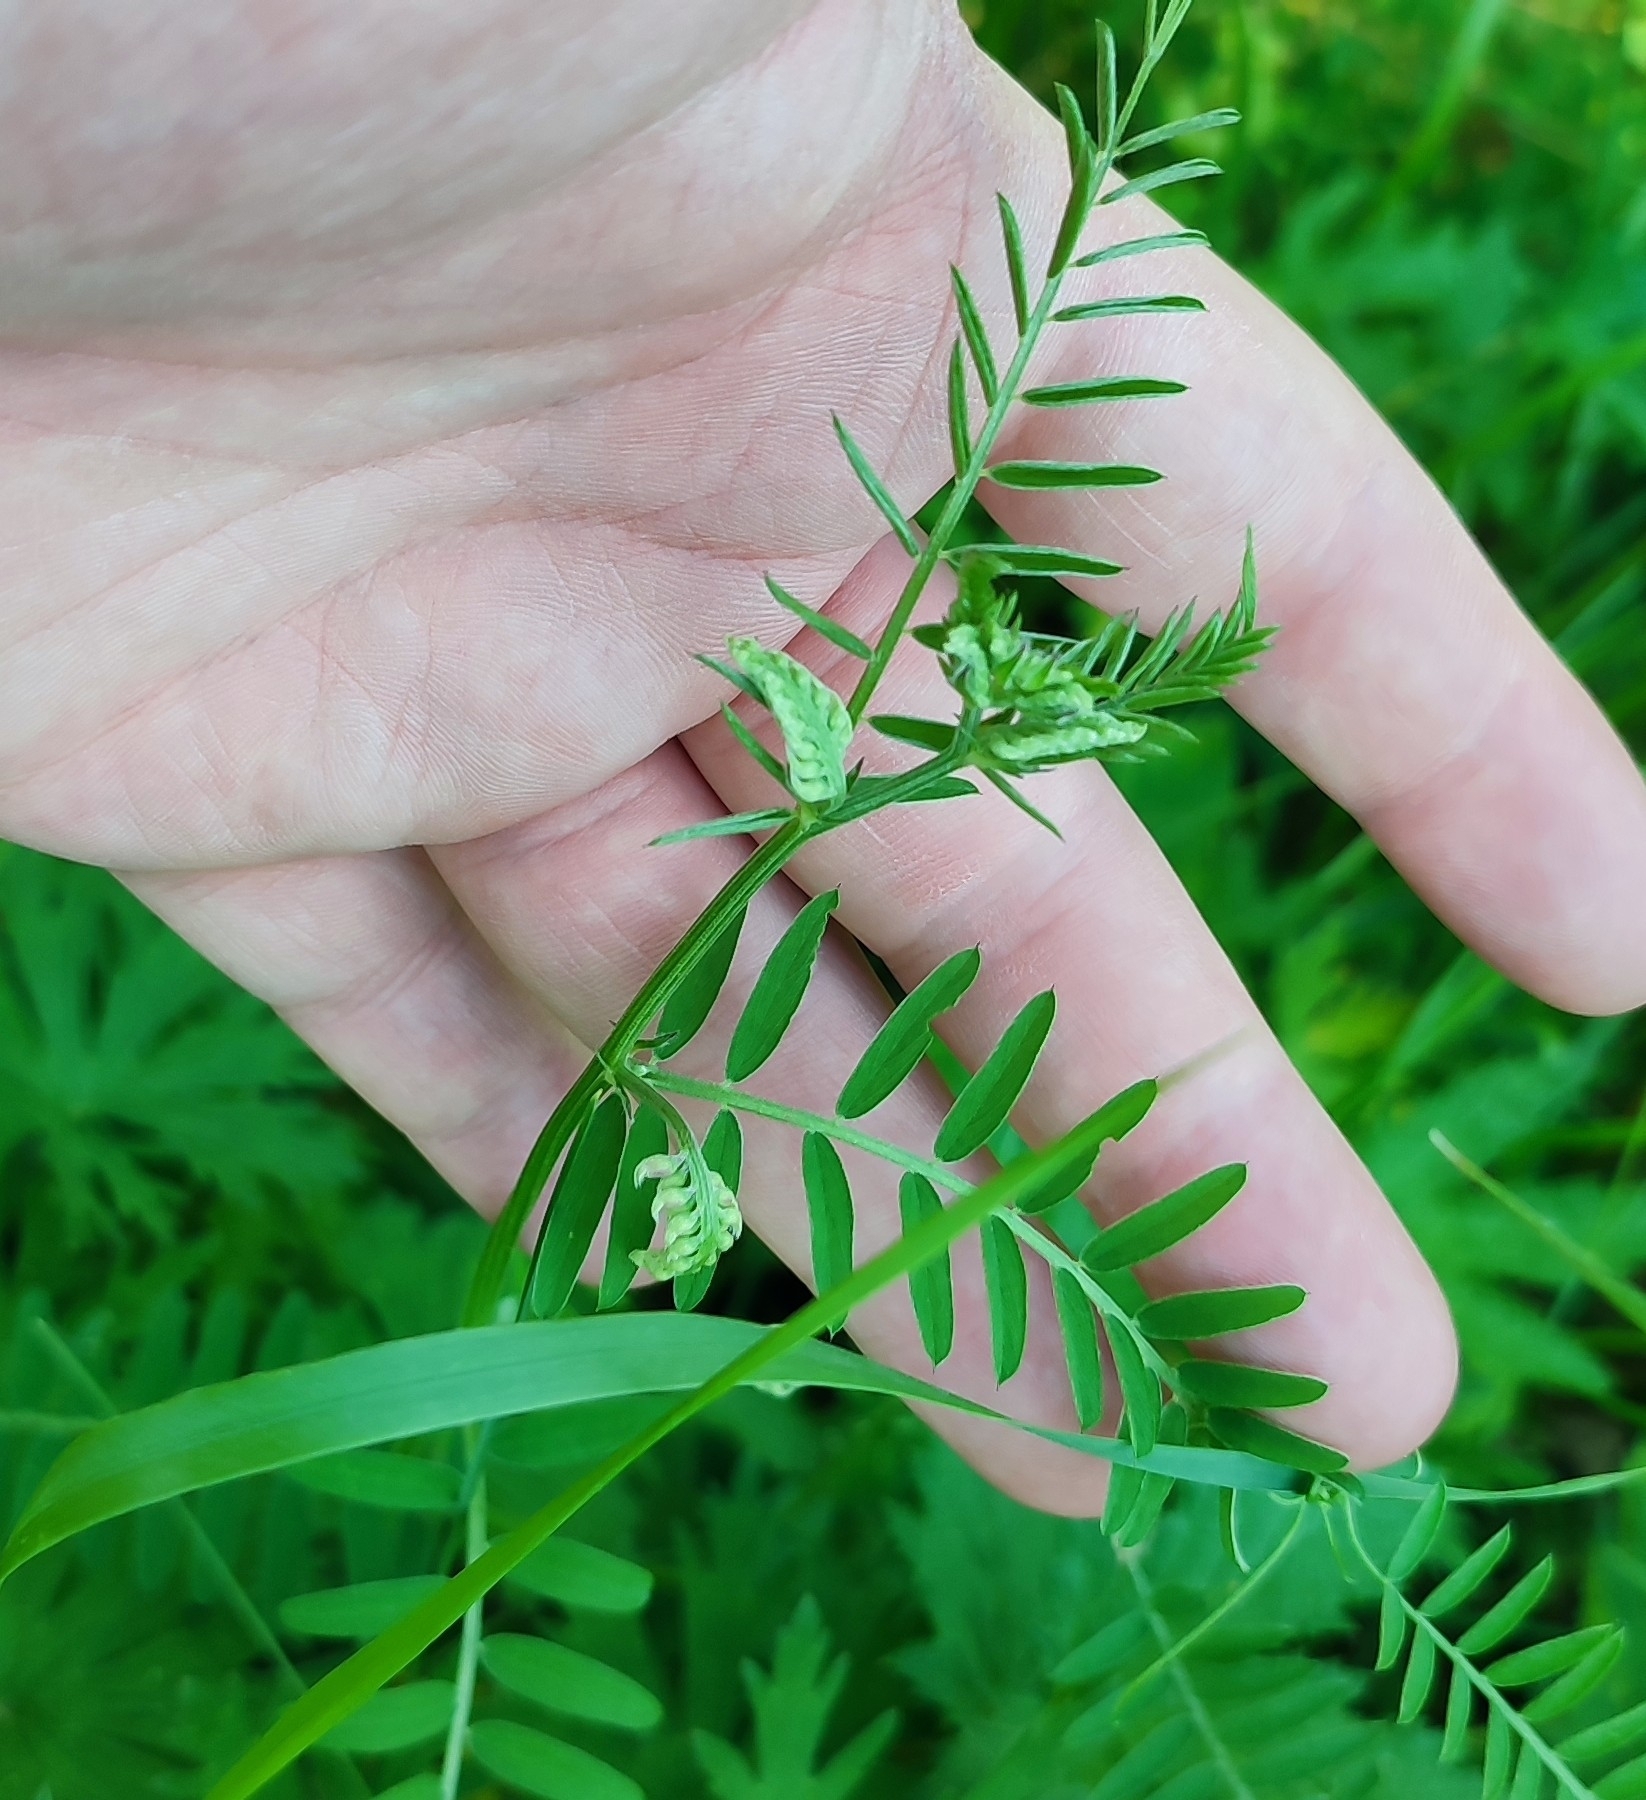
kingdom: Plantae
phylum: Tracheophyta
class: Magnoliopsida
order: Fabales
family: Fabaceae
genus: Vicia
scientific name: Vicia cracca
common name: Bird vetch
